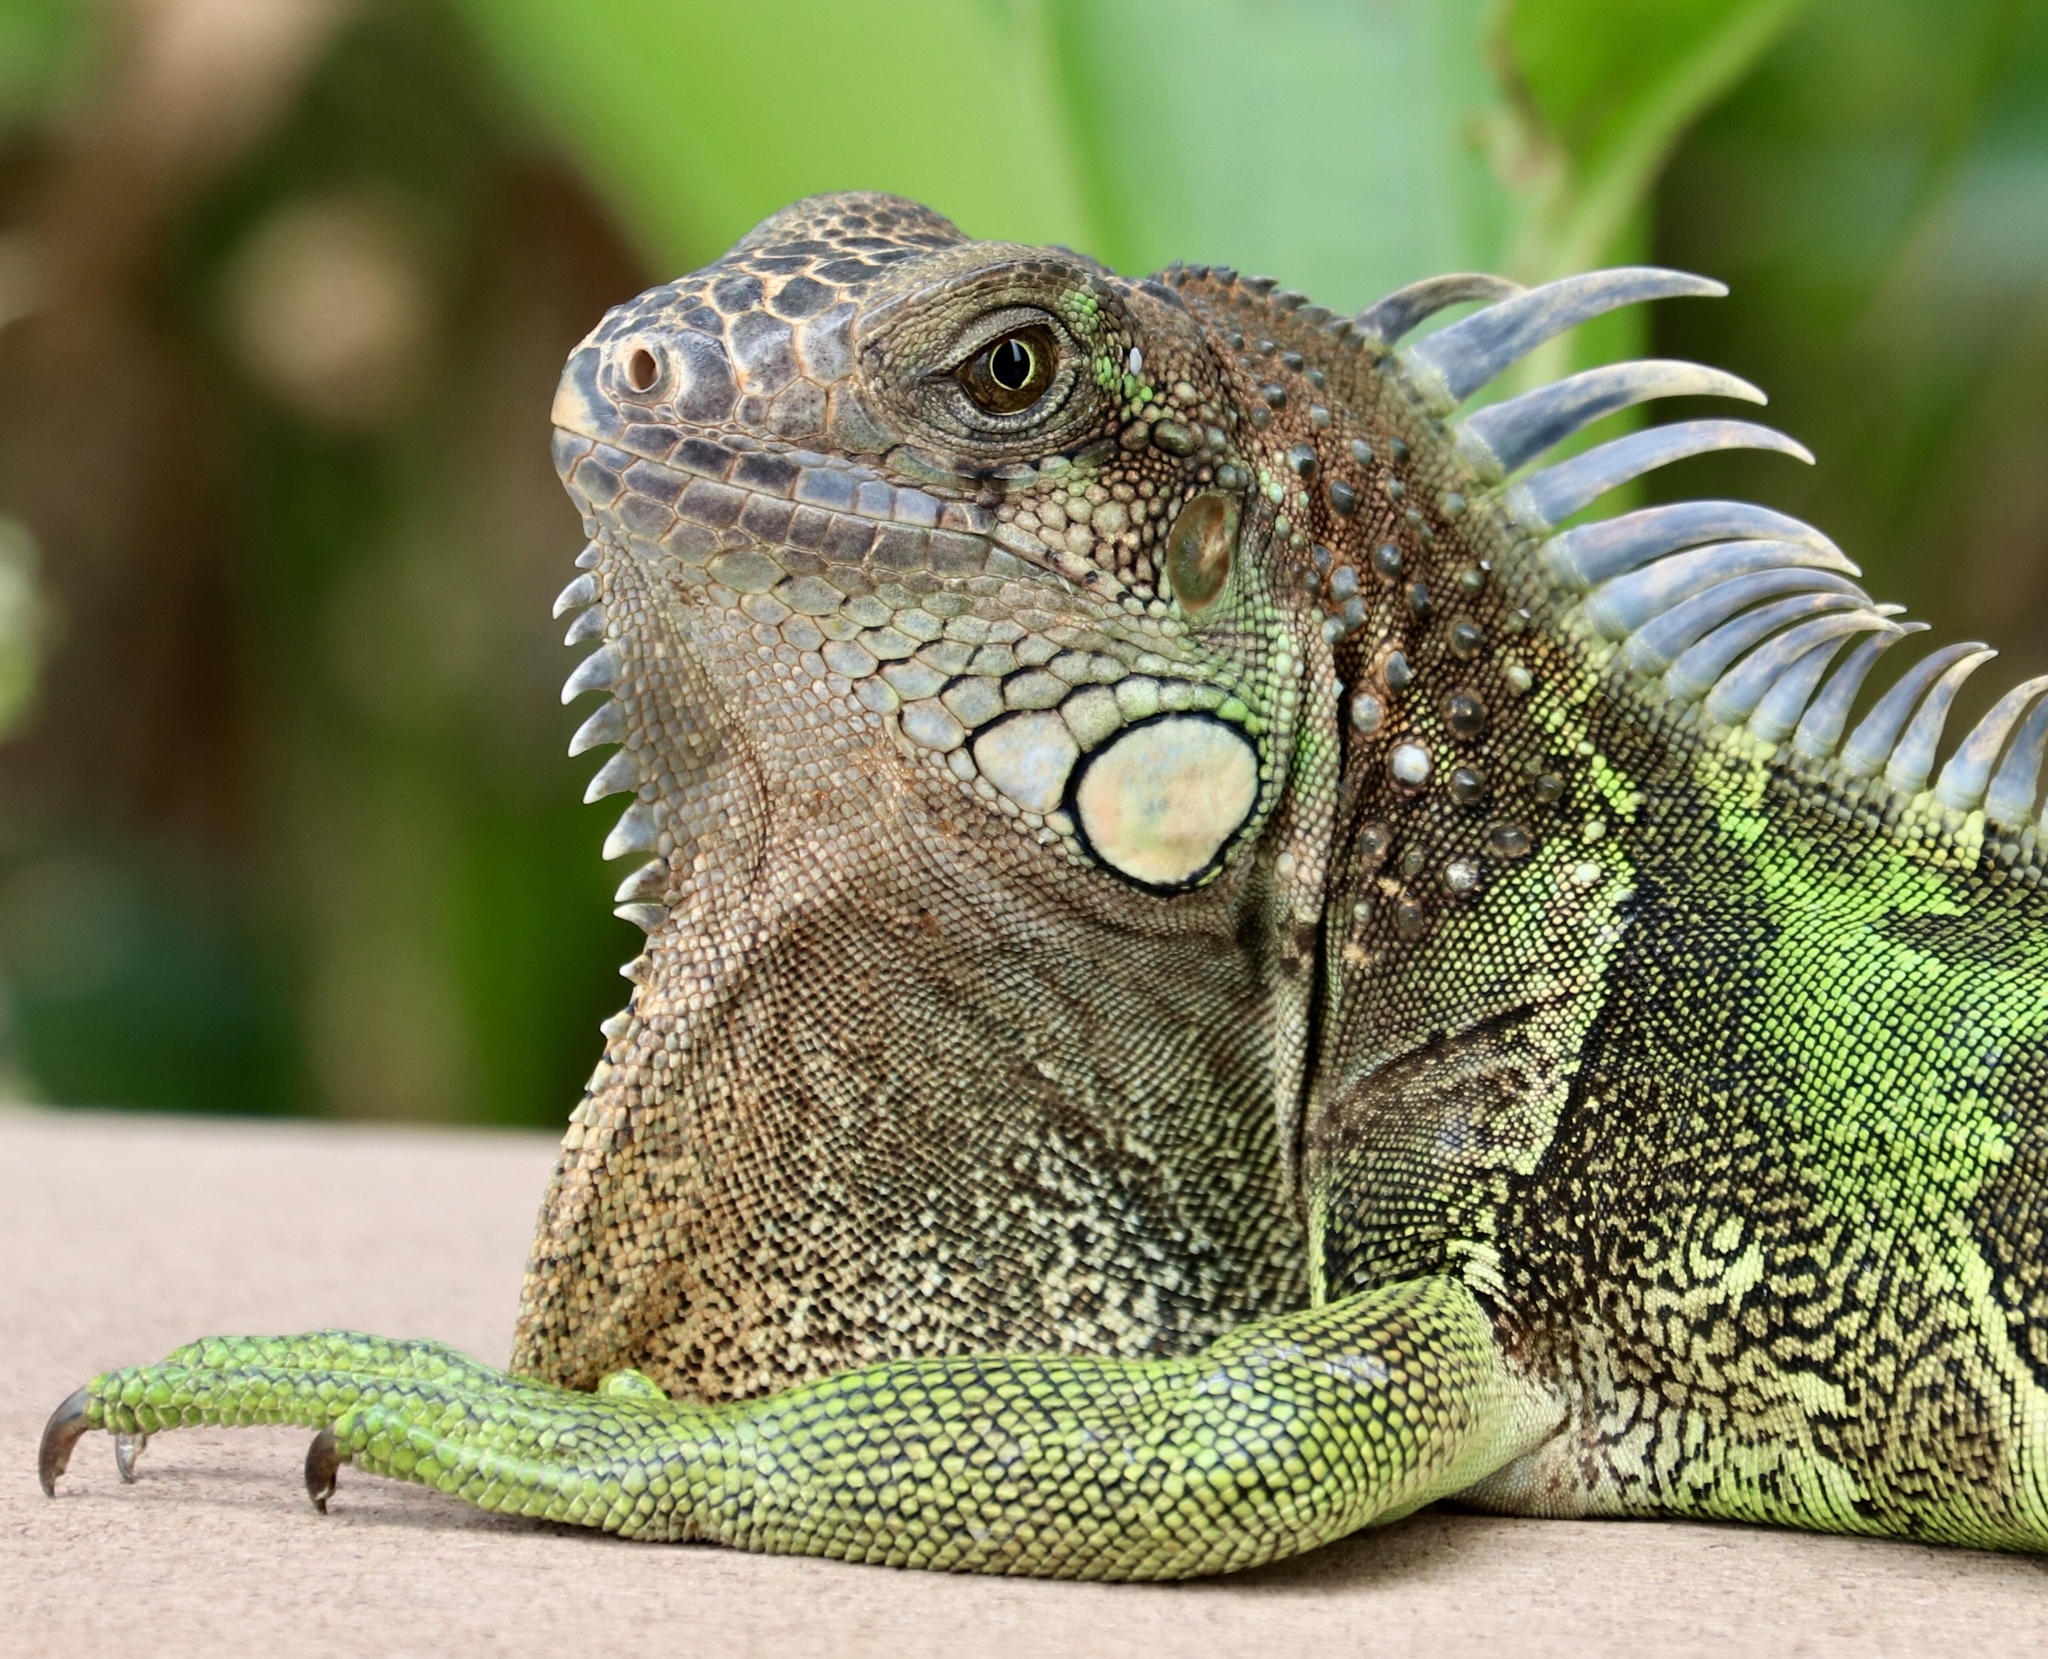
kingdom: Animalia
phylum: Chordata
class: Squamata
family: Iguanidae
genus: Iguana
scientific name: Iguana iguana
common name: Green iguana
